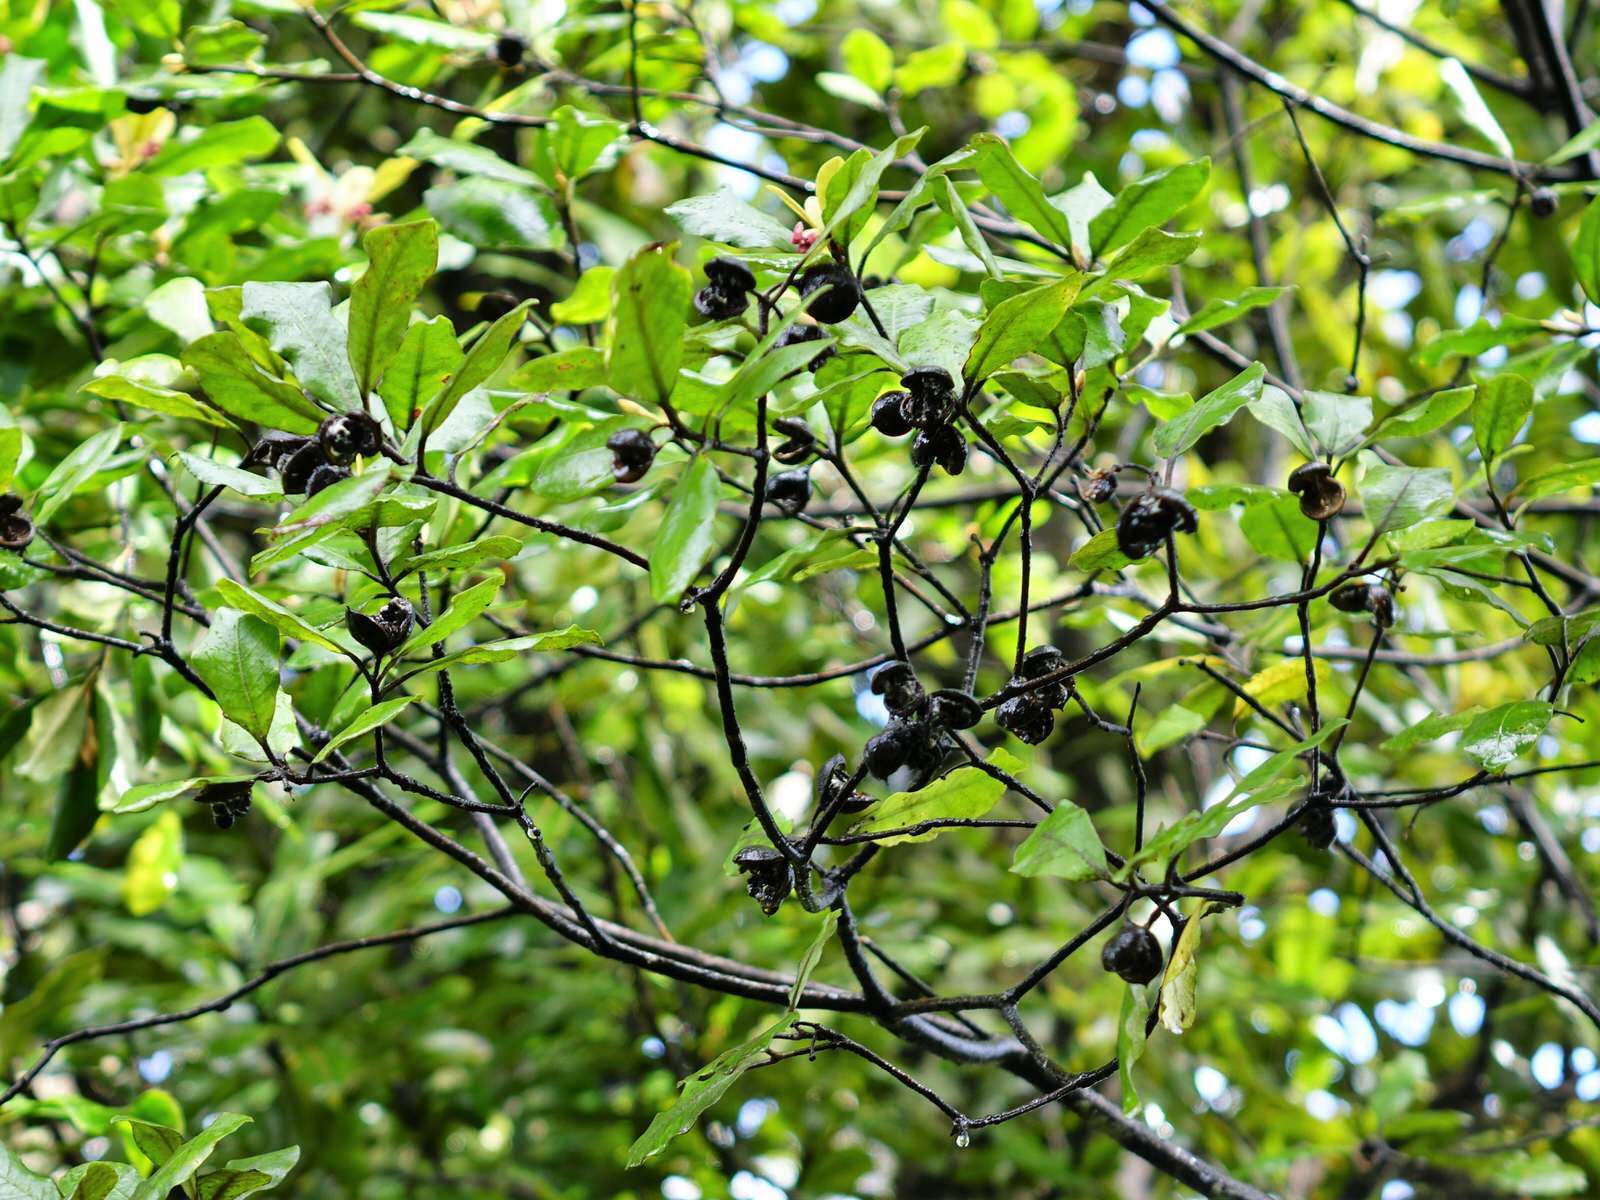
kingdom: Plantae
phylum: Tracheophyta
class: Magnoliopsida
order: Apiales
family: Pittosporaceae
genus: Pittosporum
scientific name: Pittosporum ellipticum
